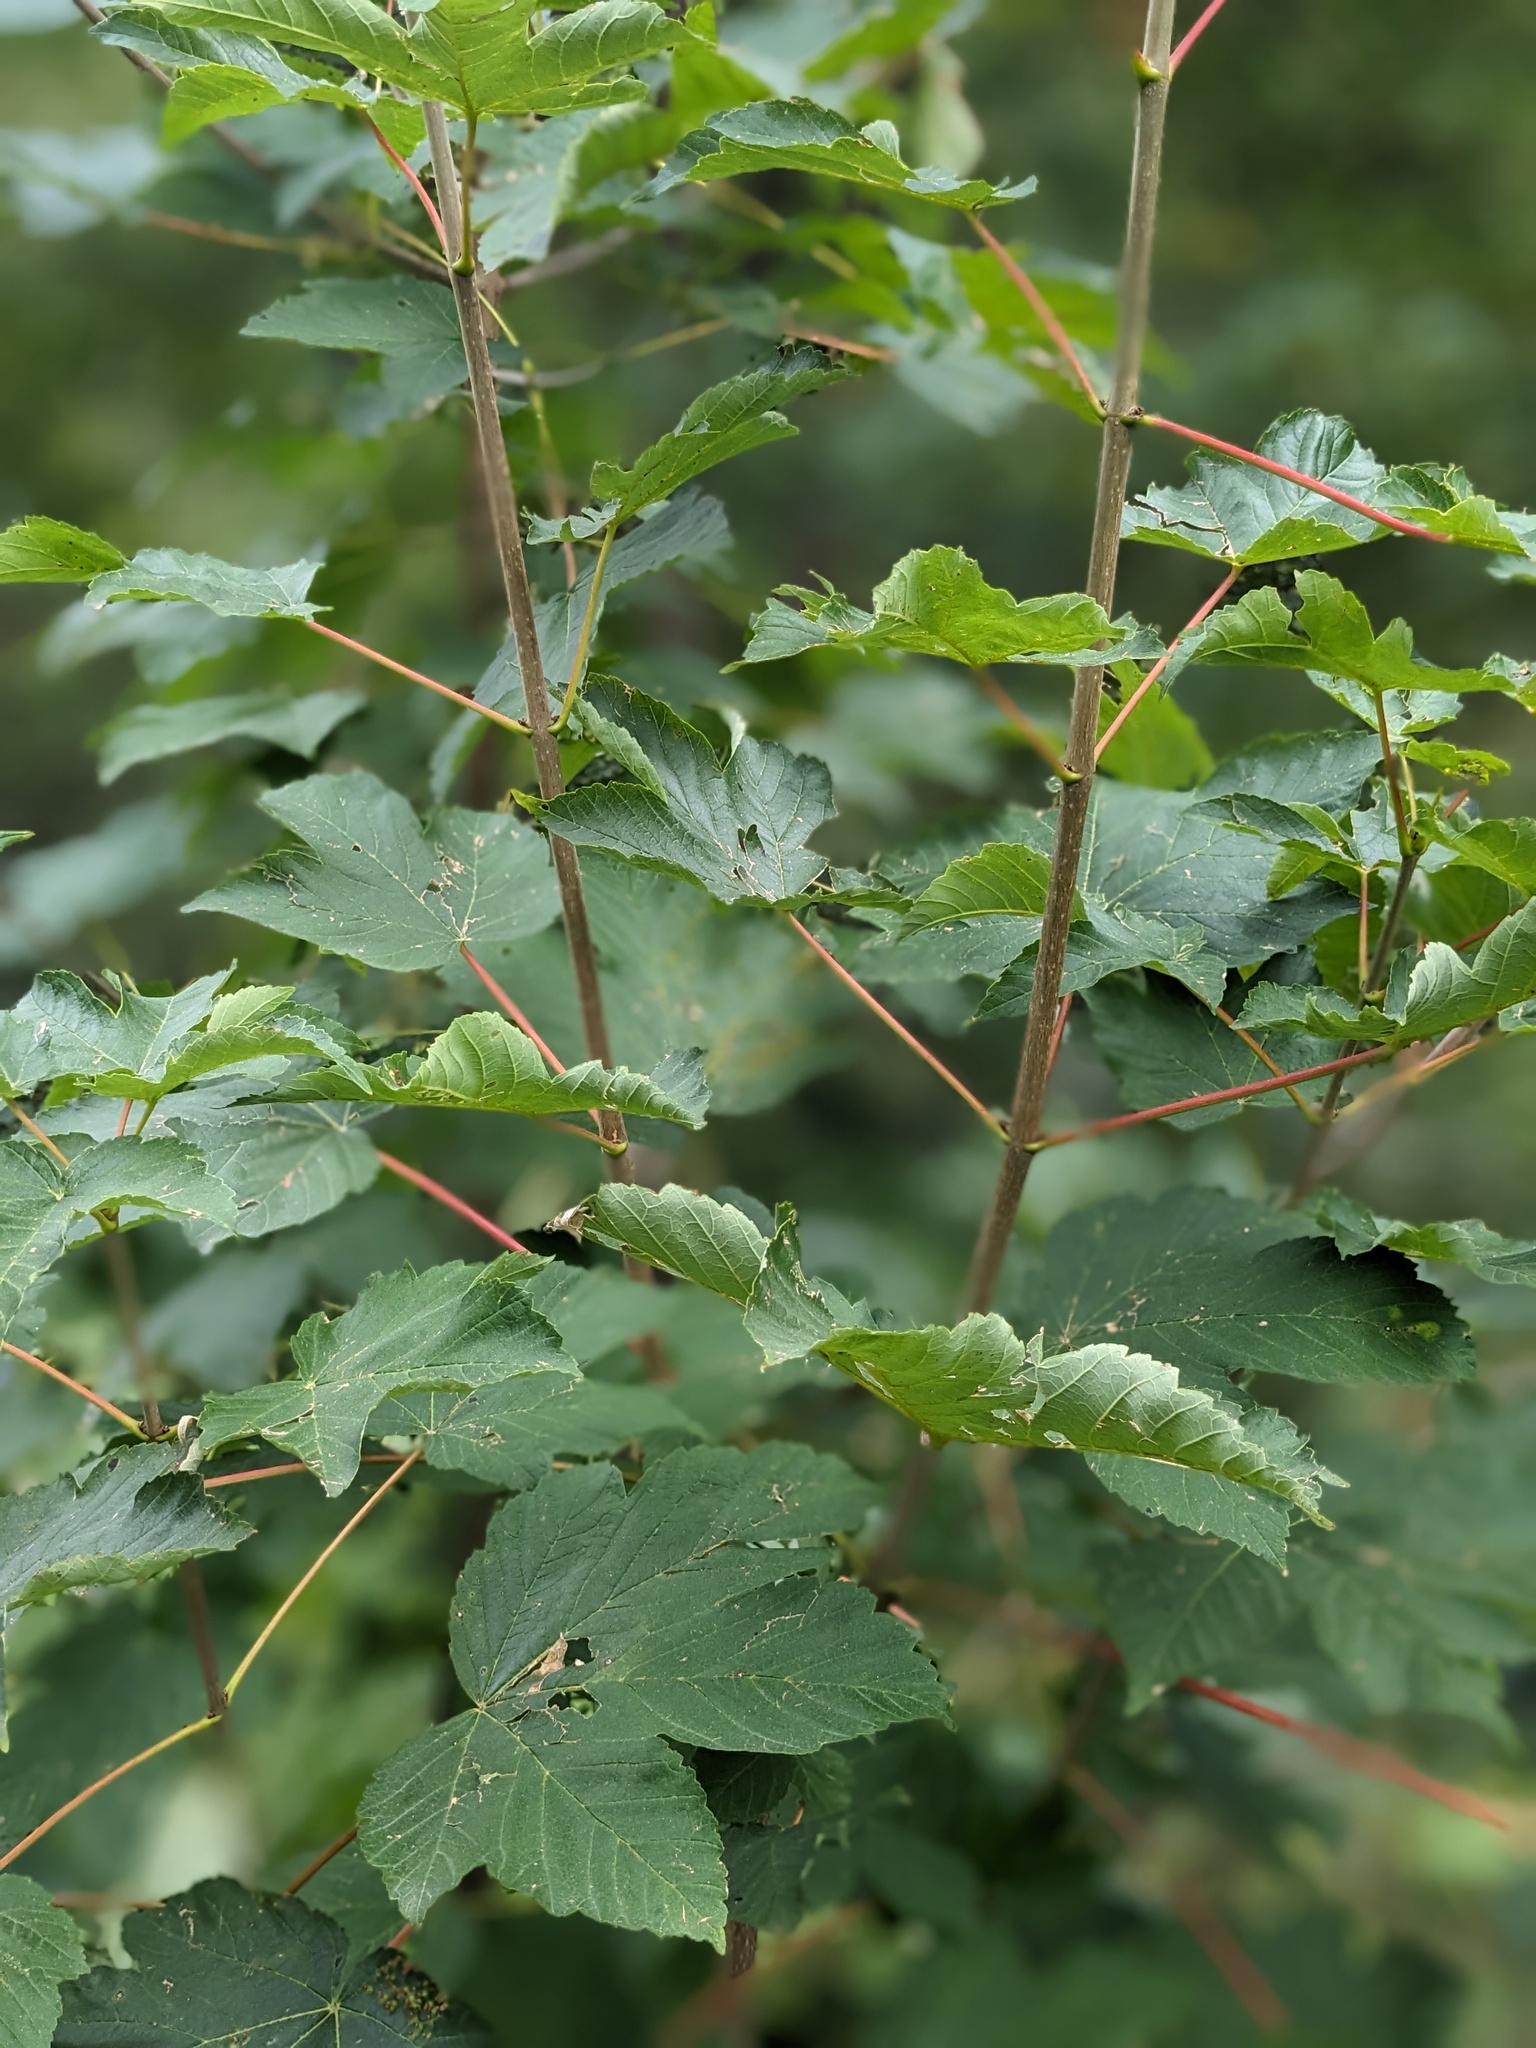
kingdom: Plantae
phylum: Tracheophyta
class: Magnoliopsida
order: Sapindales
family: Sapindaceae
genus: Acer
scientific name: Acer pseudoplatanus
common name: Sycamore
